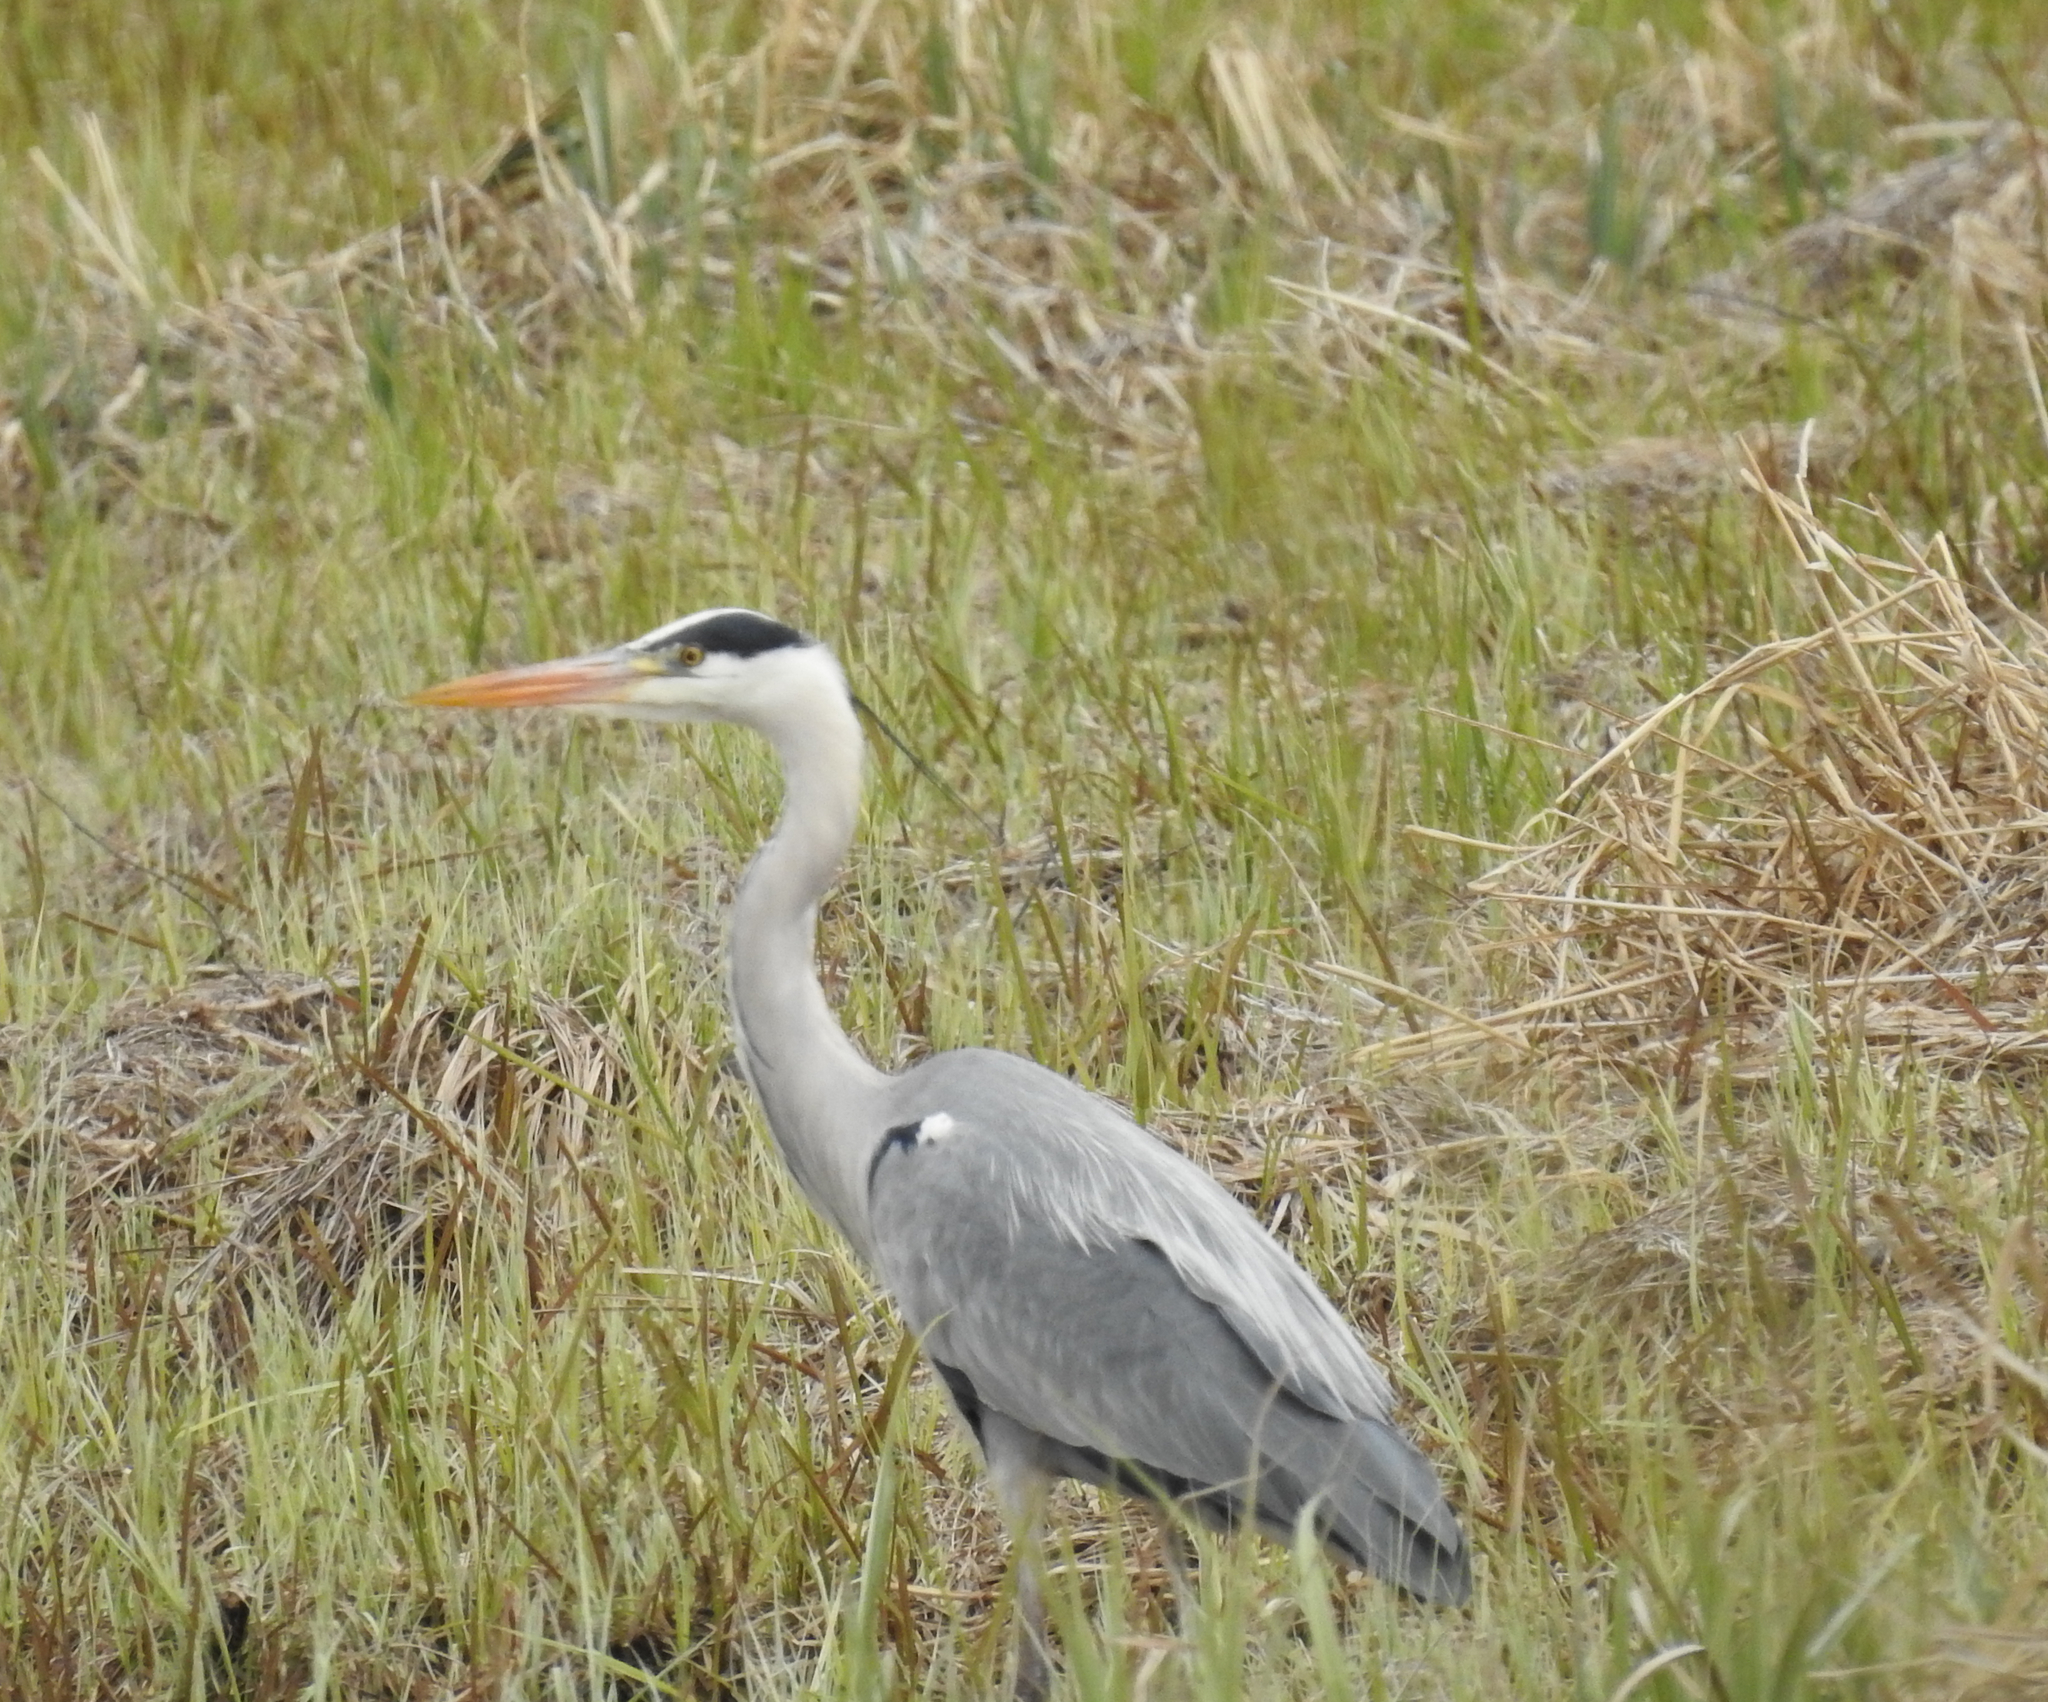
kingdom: Animalia
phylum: Chordata
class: Aves
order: Pelecaniformes
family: Ardeidae
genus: Ardea
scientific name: Ardea cinerea
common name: Grey heron
